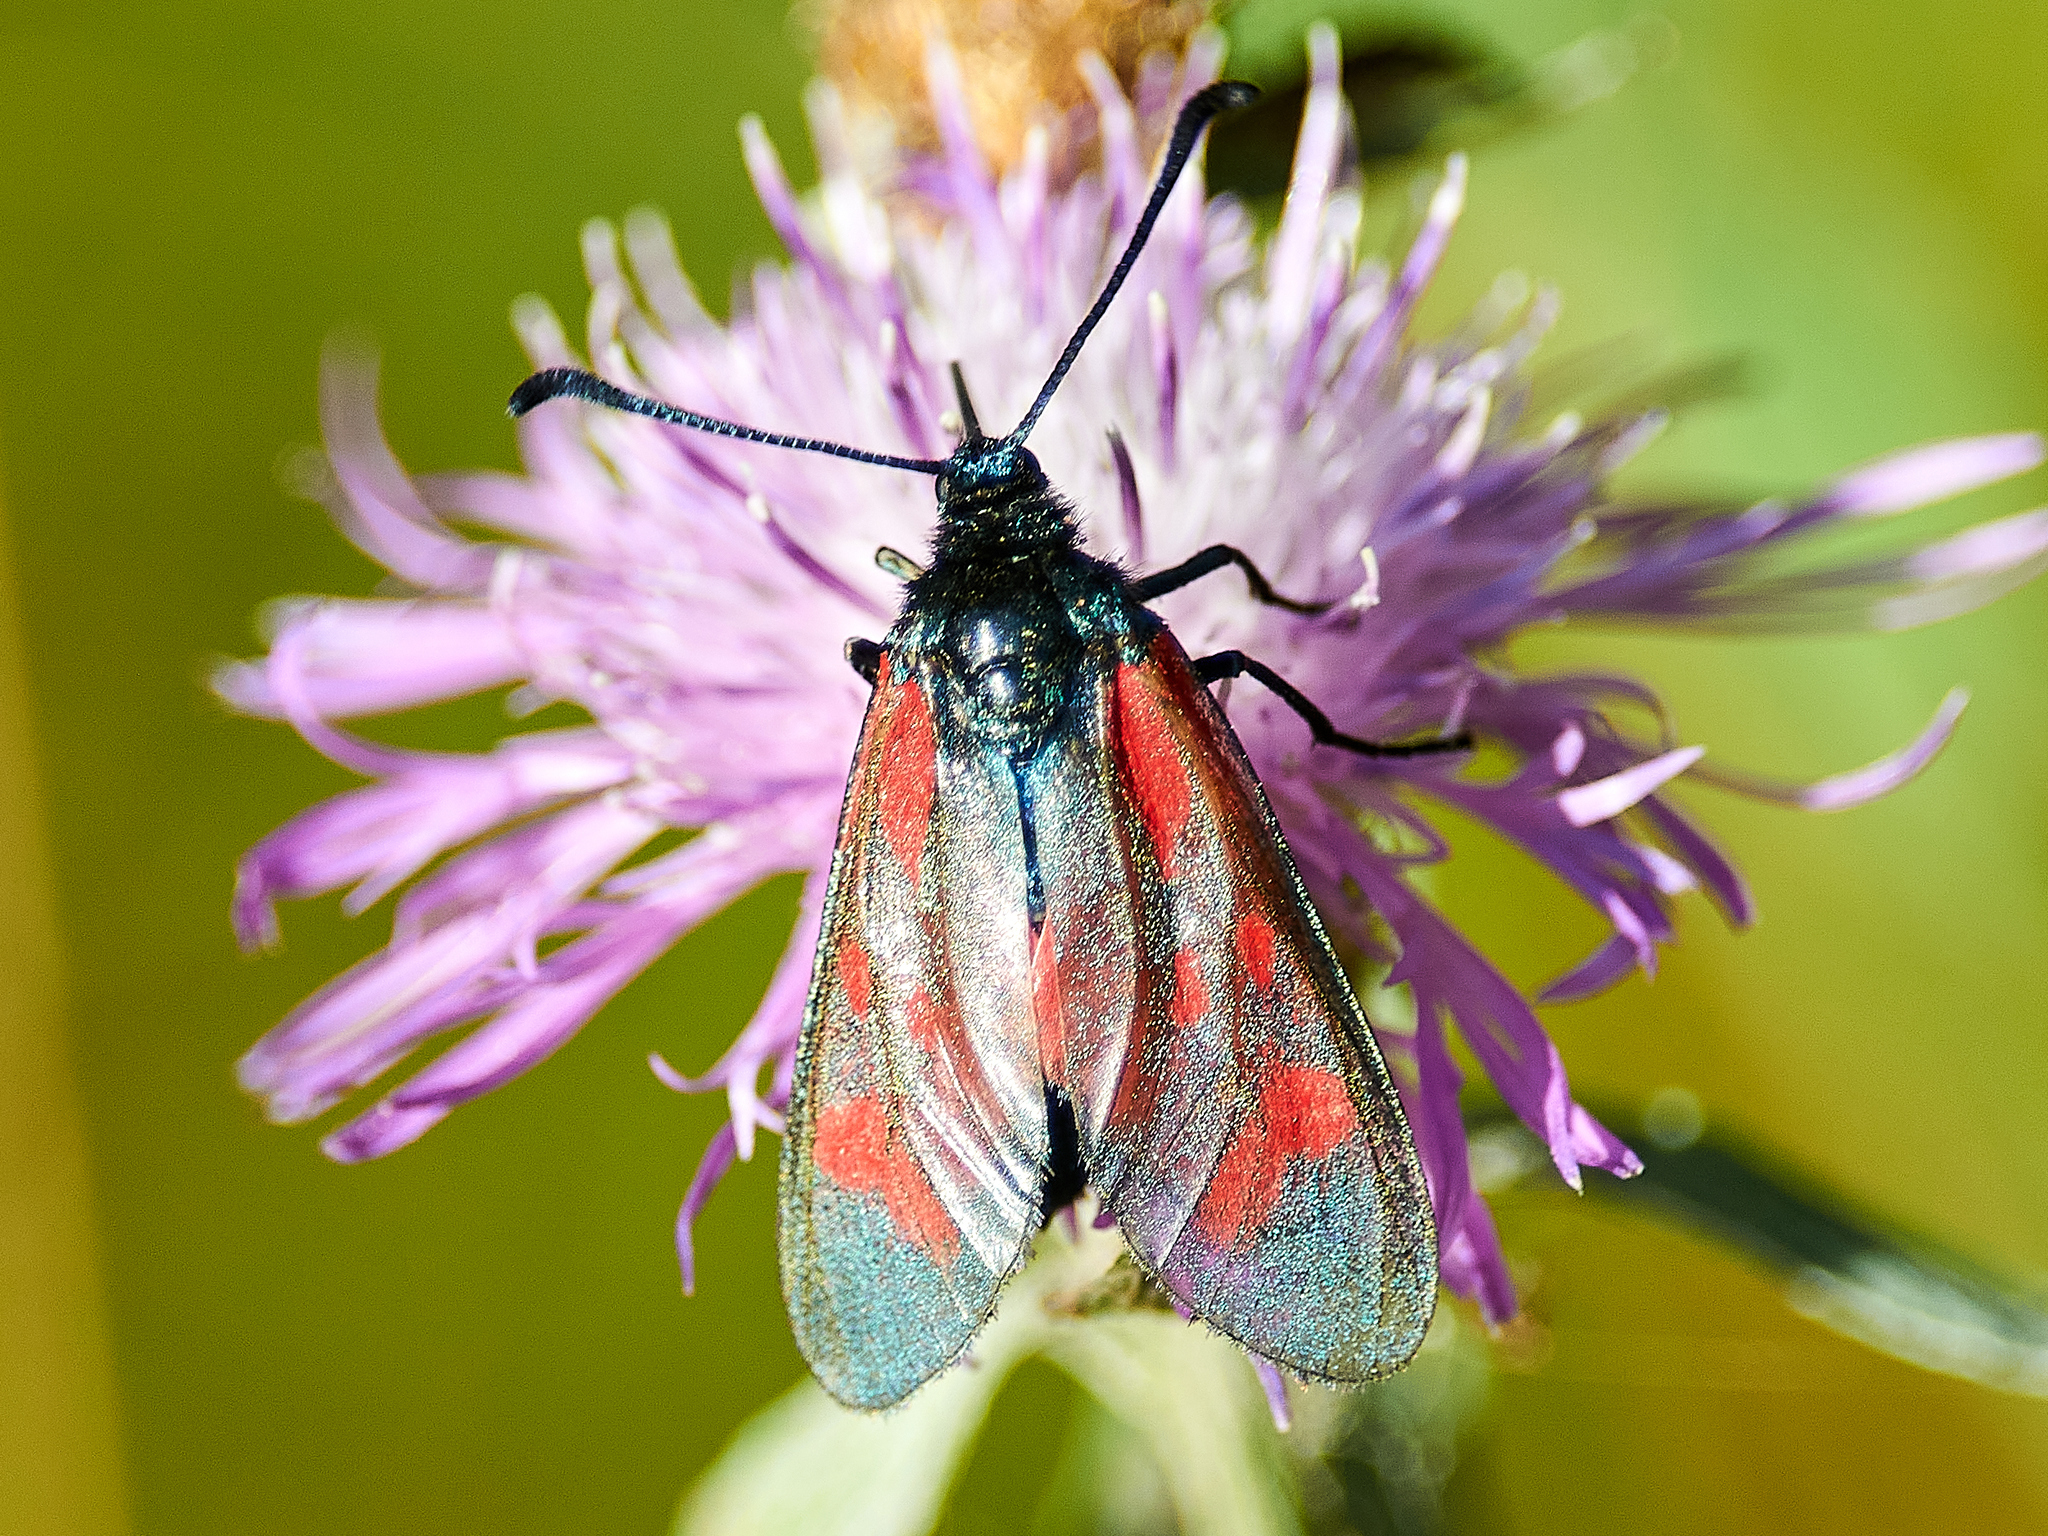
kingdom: Animalia
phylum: Arthropoda
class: Insecta
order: Lepidoptera
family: Zygaenidae
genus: Zygaena
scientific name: Zygaena filipendulae
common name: Six-spot burnet
